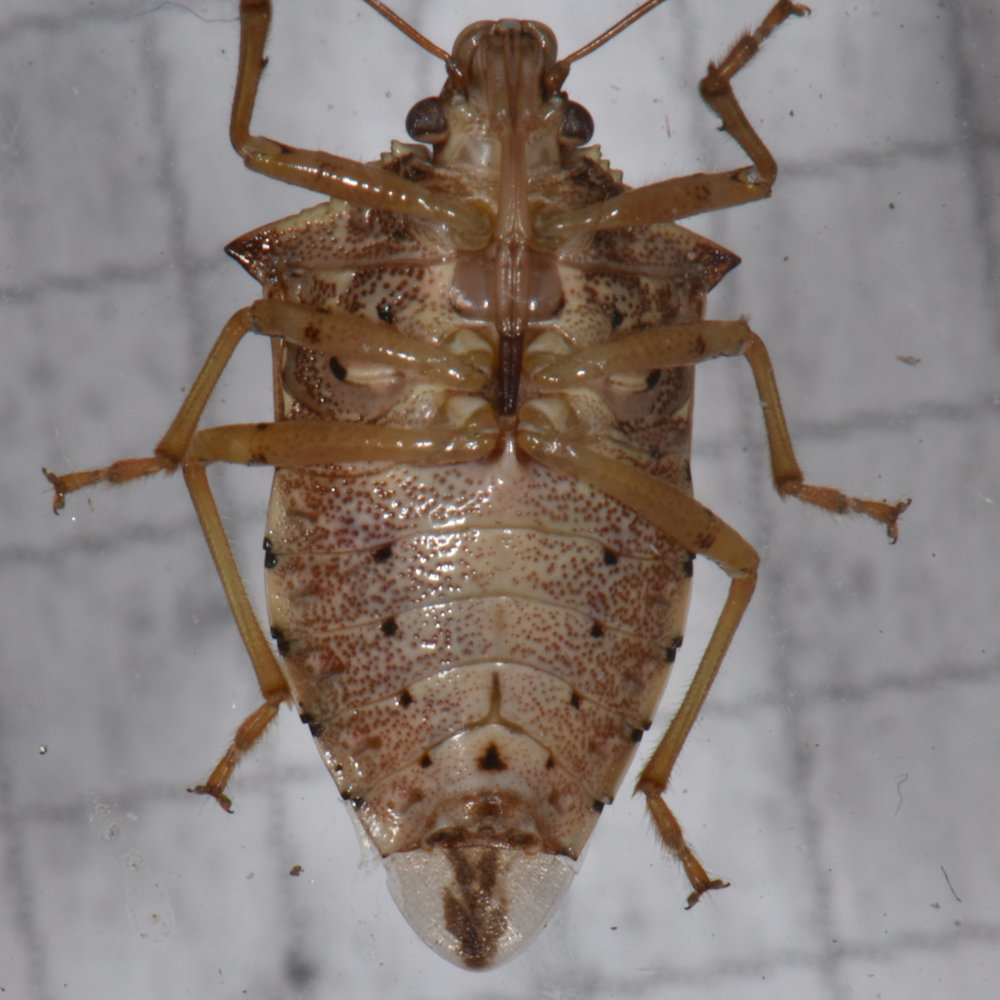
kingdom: Animalia
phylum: Arthropoda
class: Insecta
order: Hemiptera
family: Pentatomidae
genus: Podisus
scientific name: Podisus maculiventris
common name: Spined soldier bug
